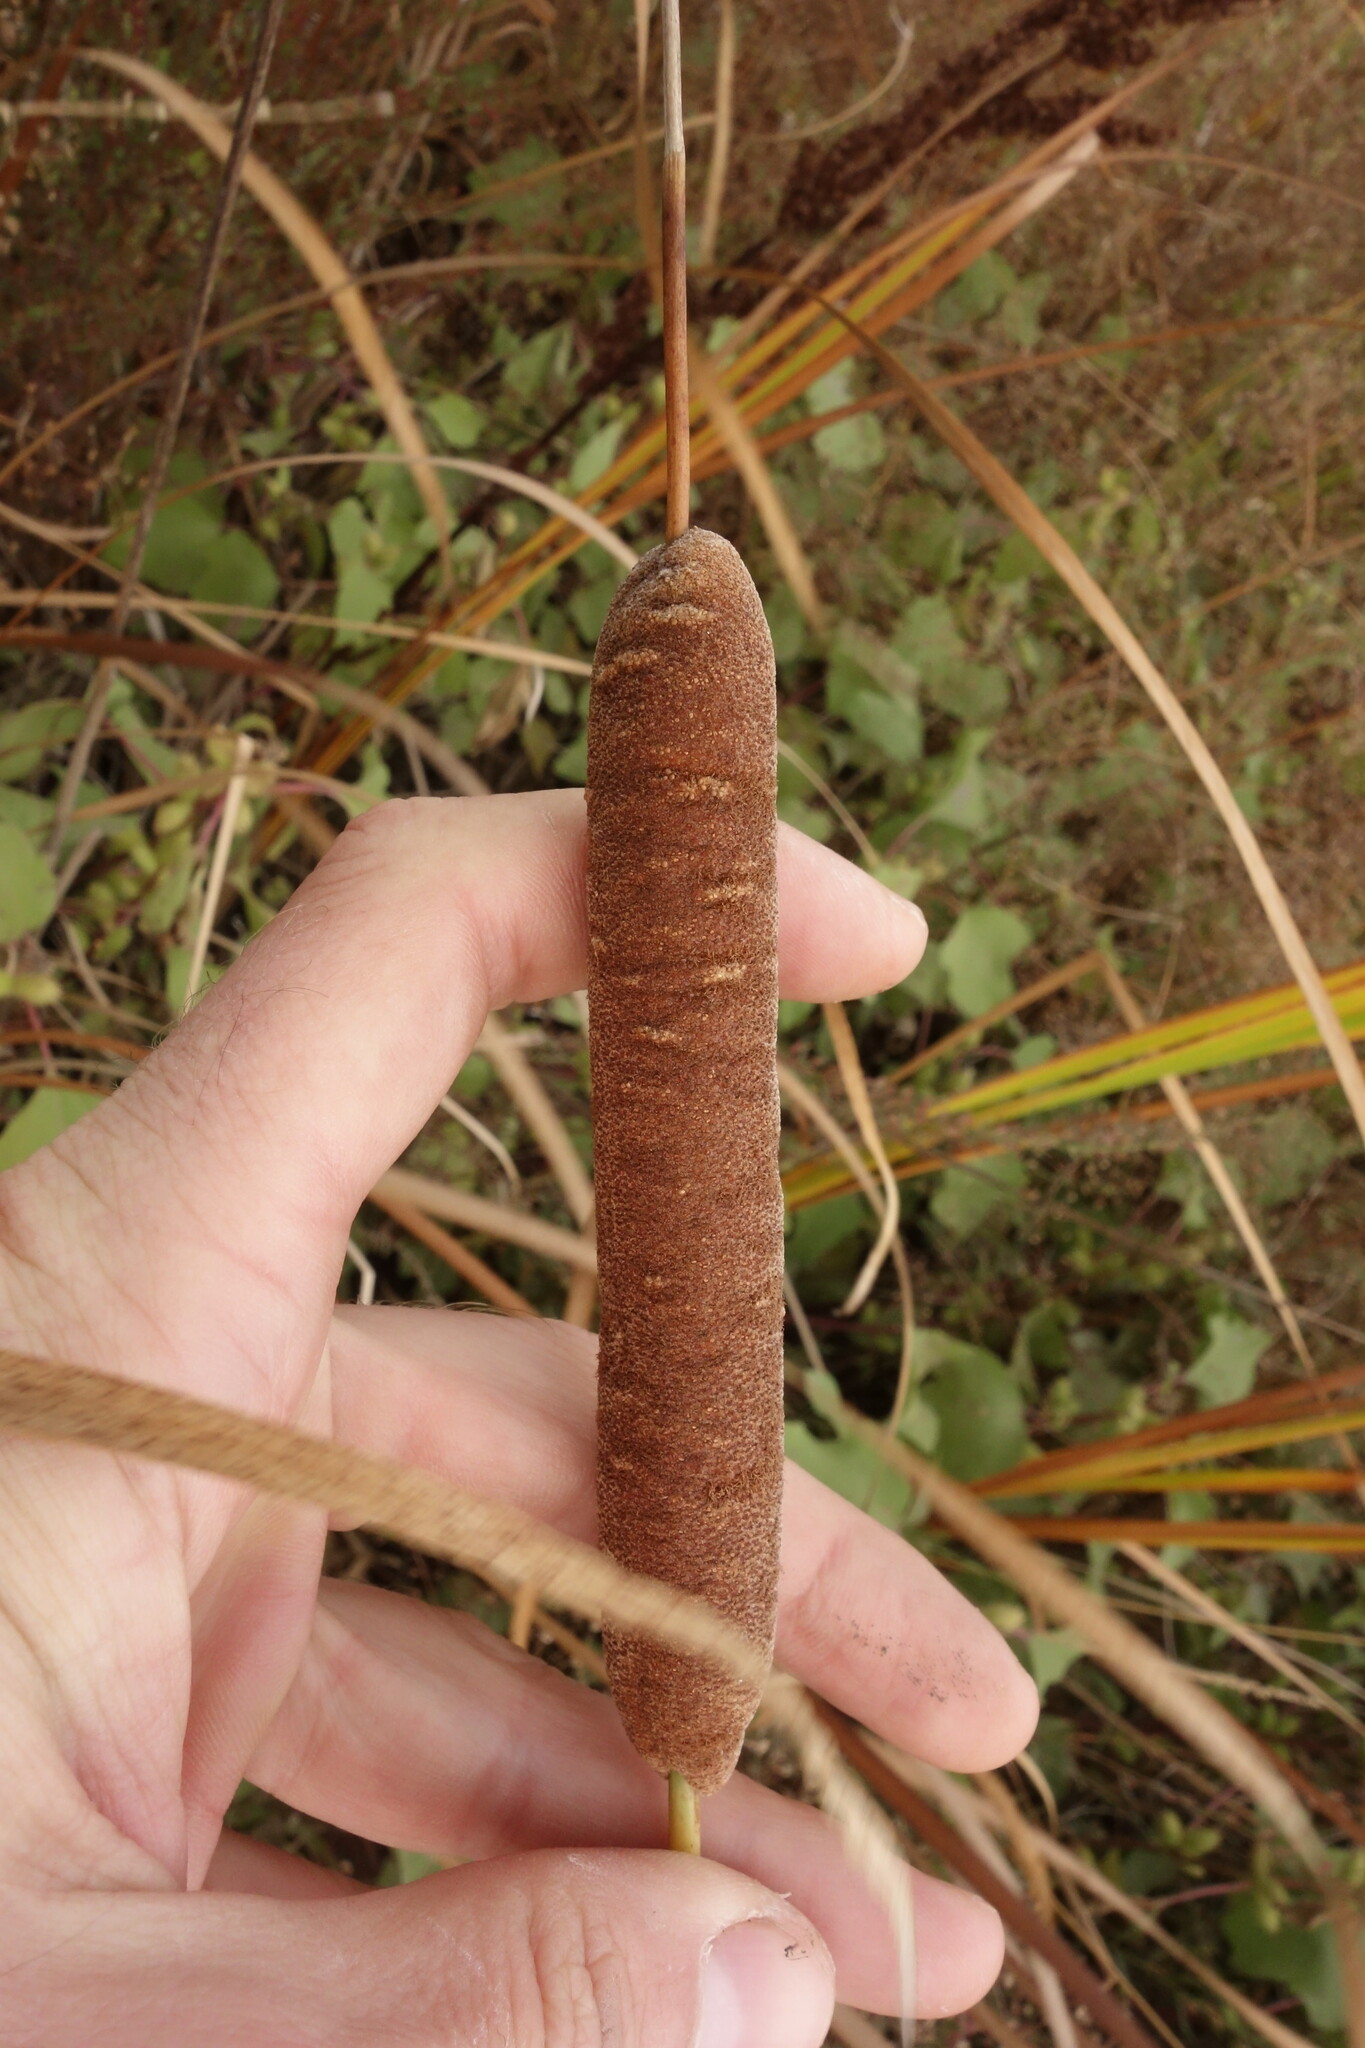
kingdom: Plantae
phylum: Tracheophyta
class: Liliopsida
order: Poales
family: Typhaceae
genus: Typha
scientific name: Typha angustifolia
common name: Lesser bulrush
